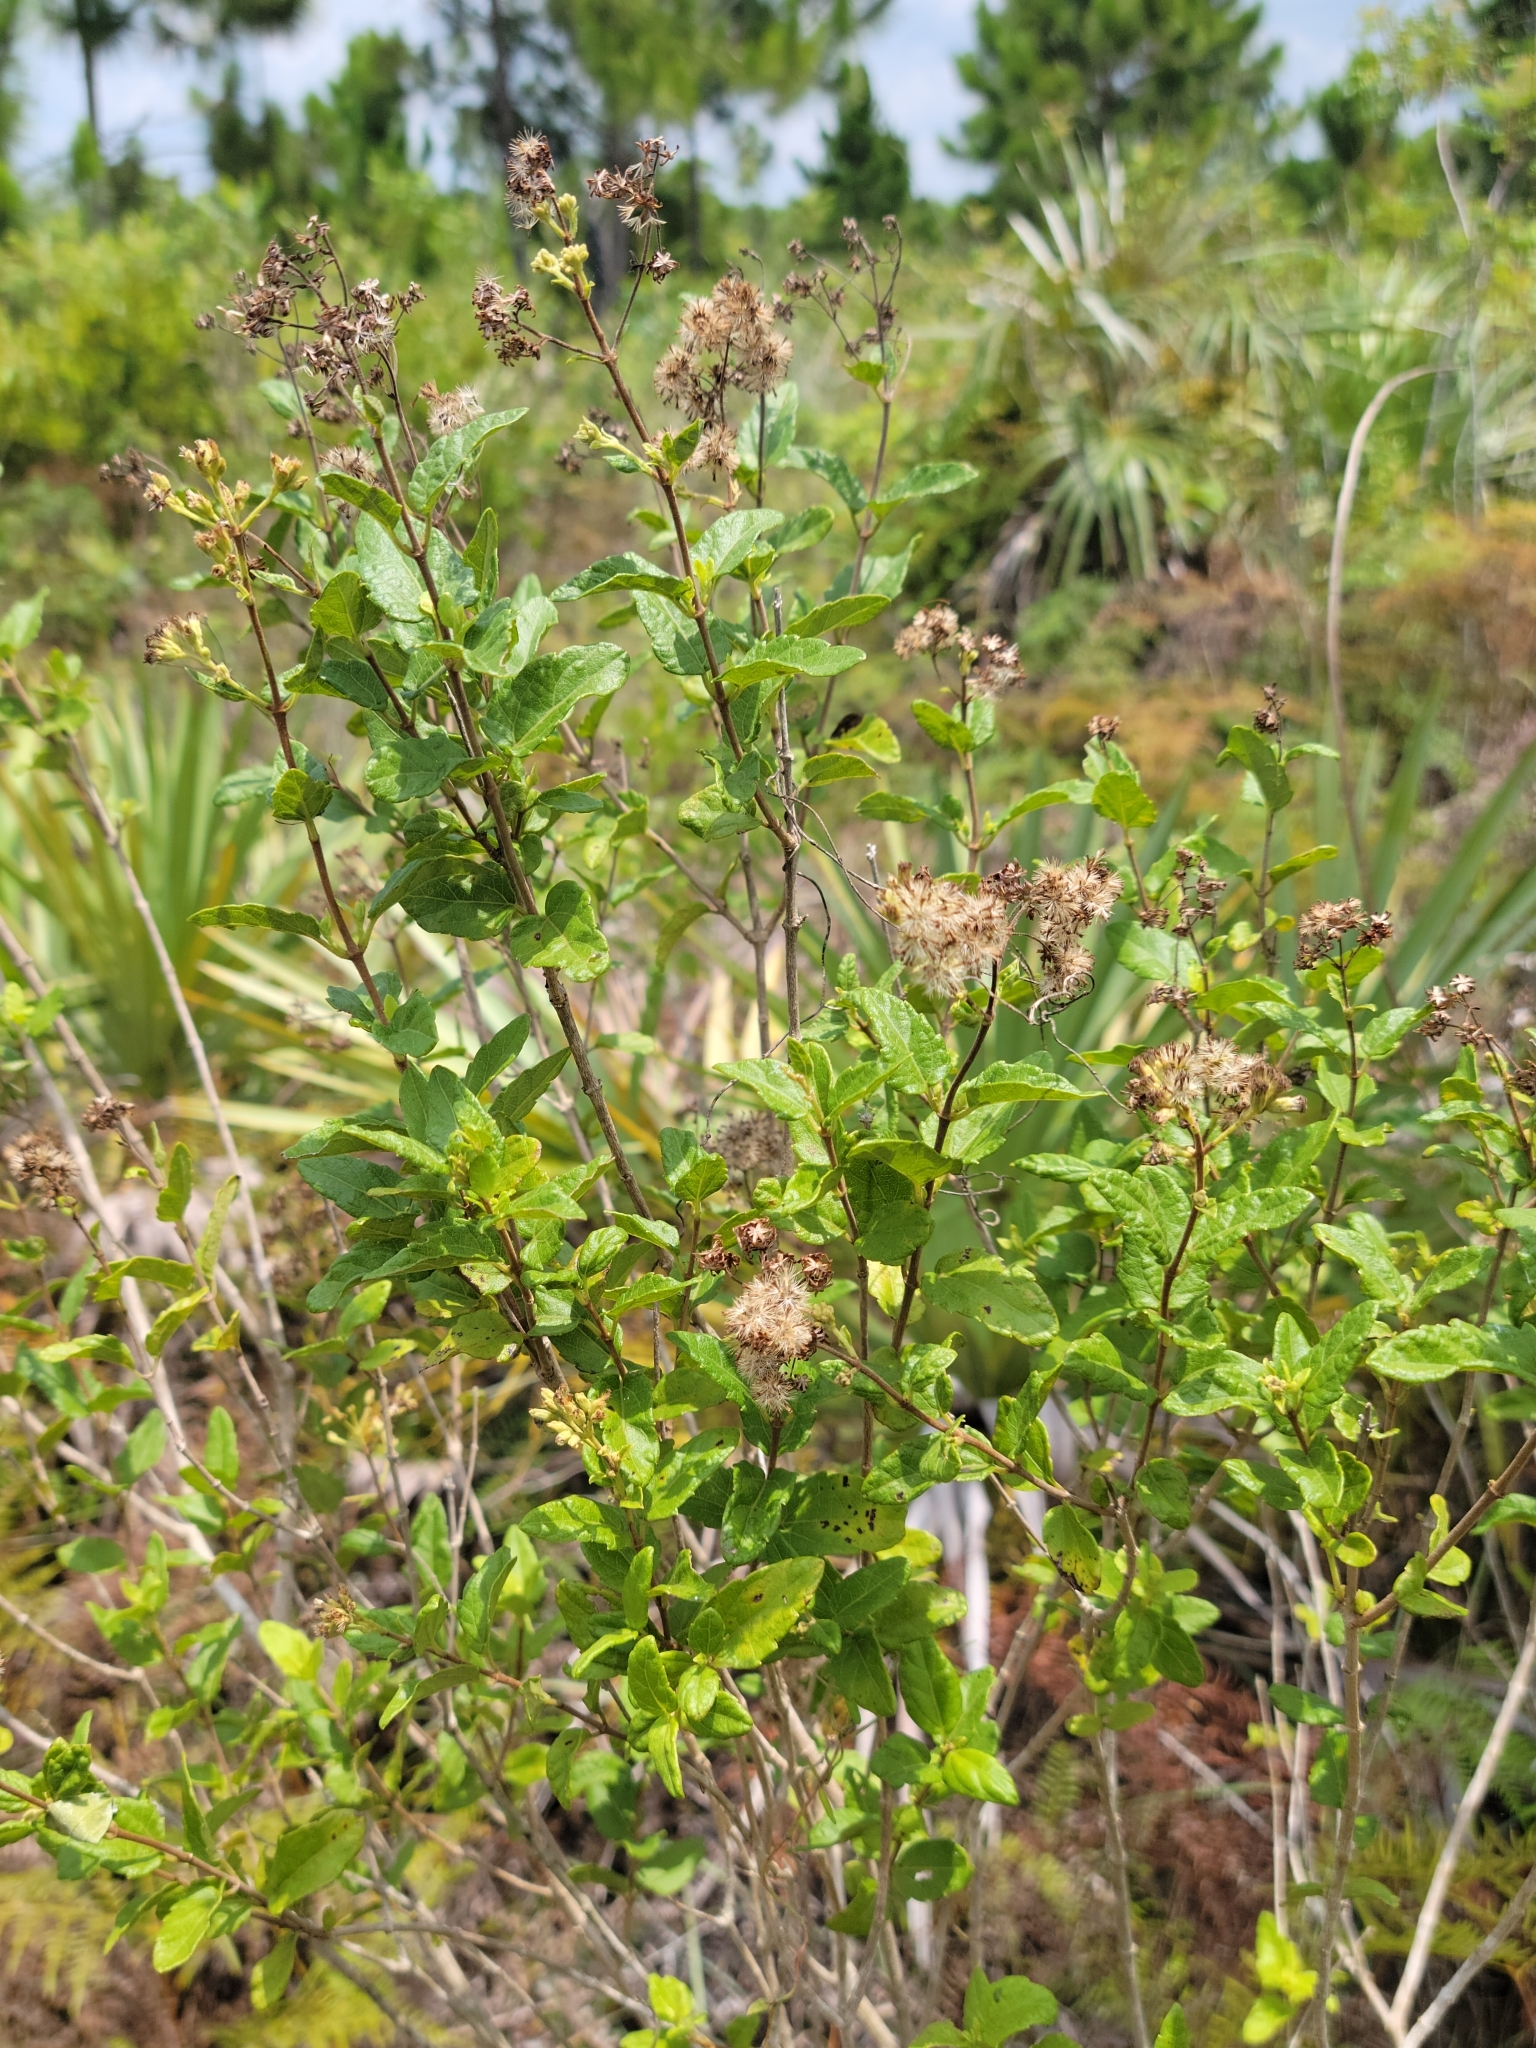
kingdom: Plantae
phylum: Tracheophyta
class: Magnoliopsida
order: Asterales
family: Asteraceae
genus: Koanophyllon
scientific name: Koanophyllon villosum
